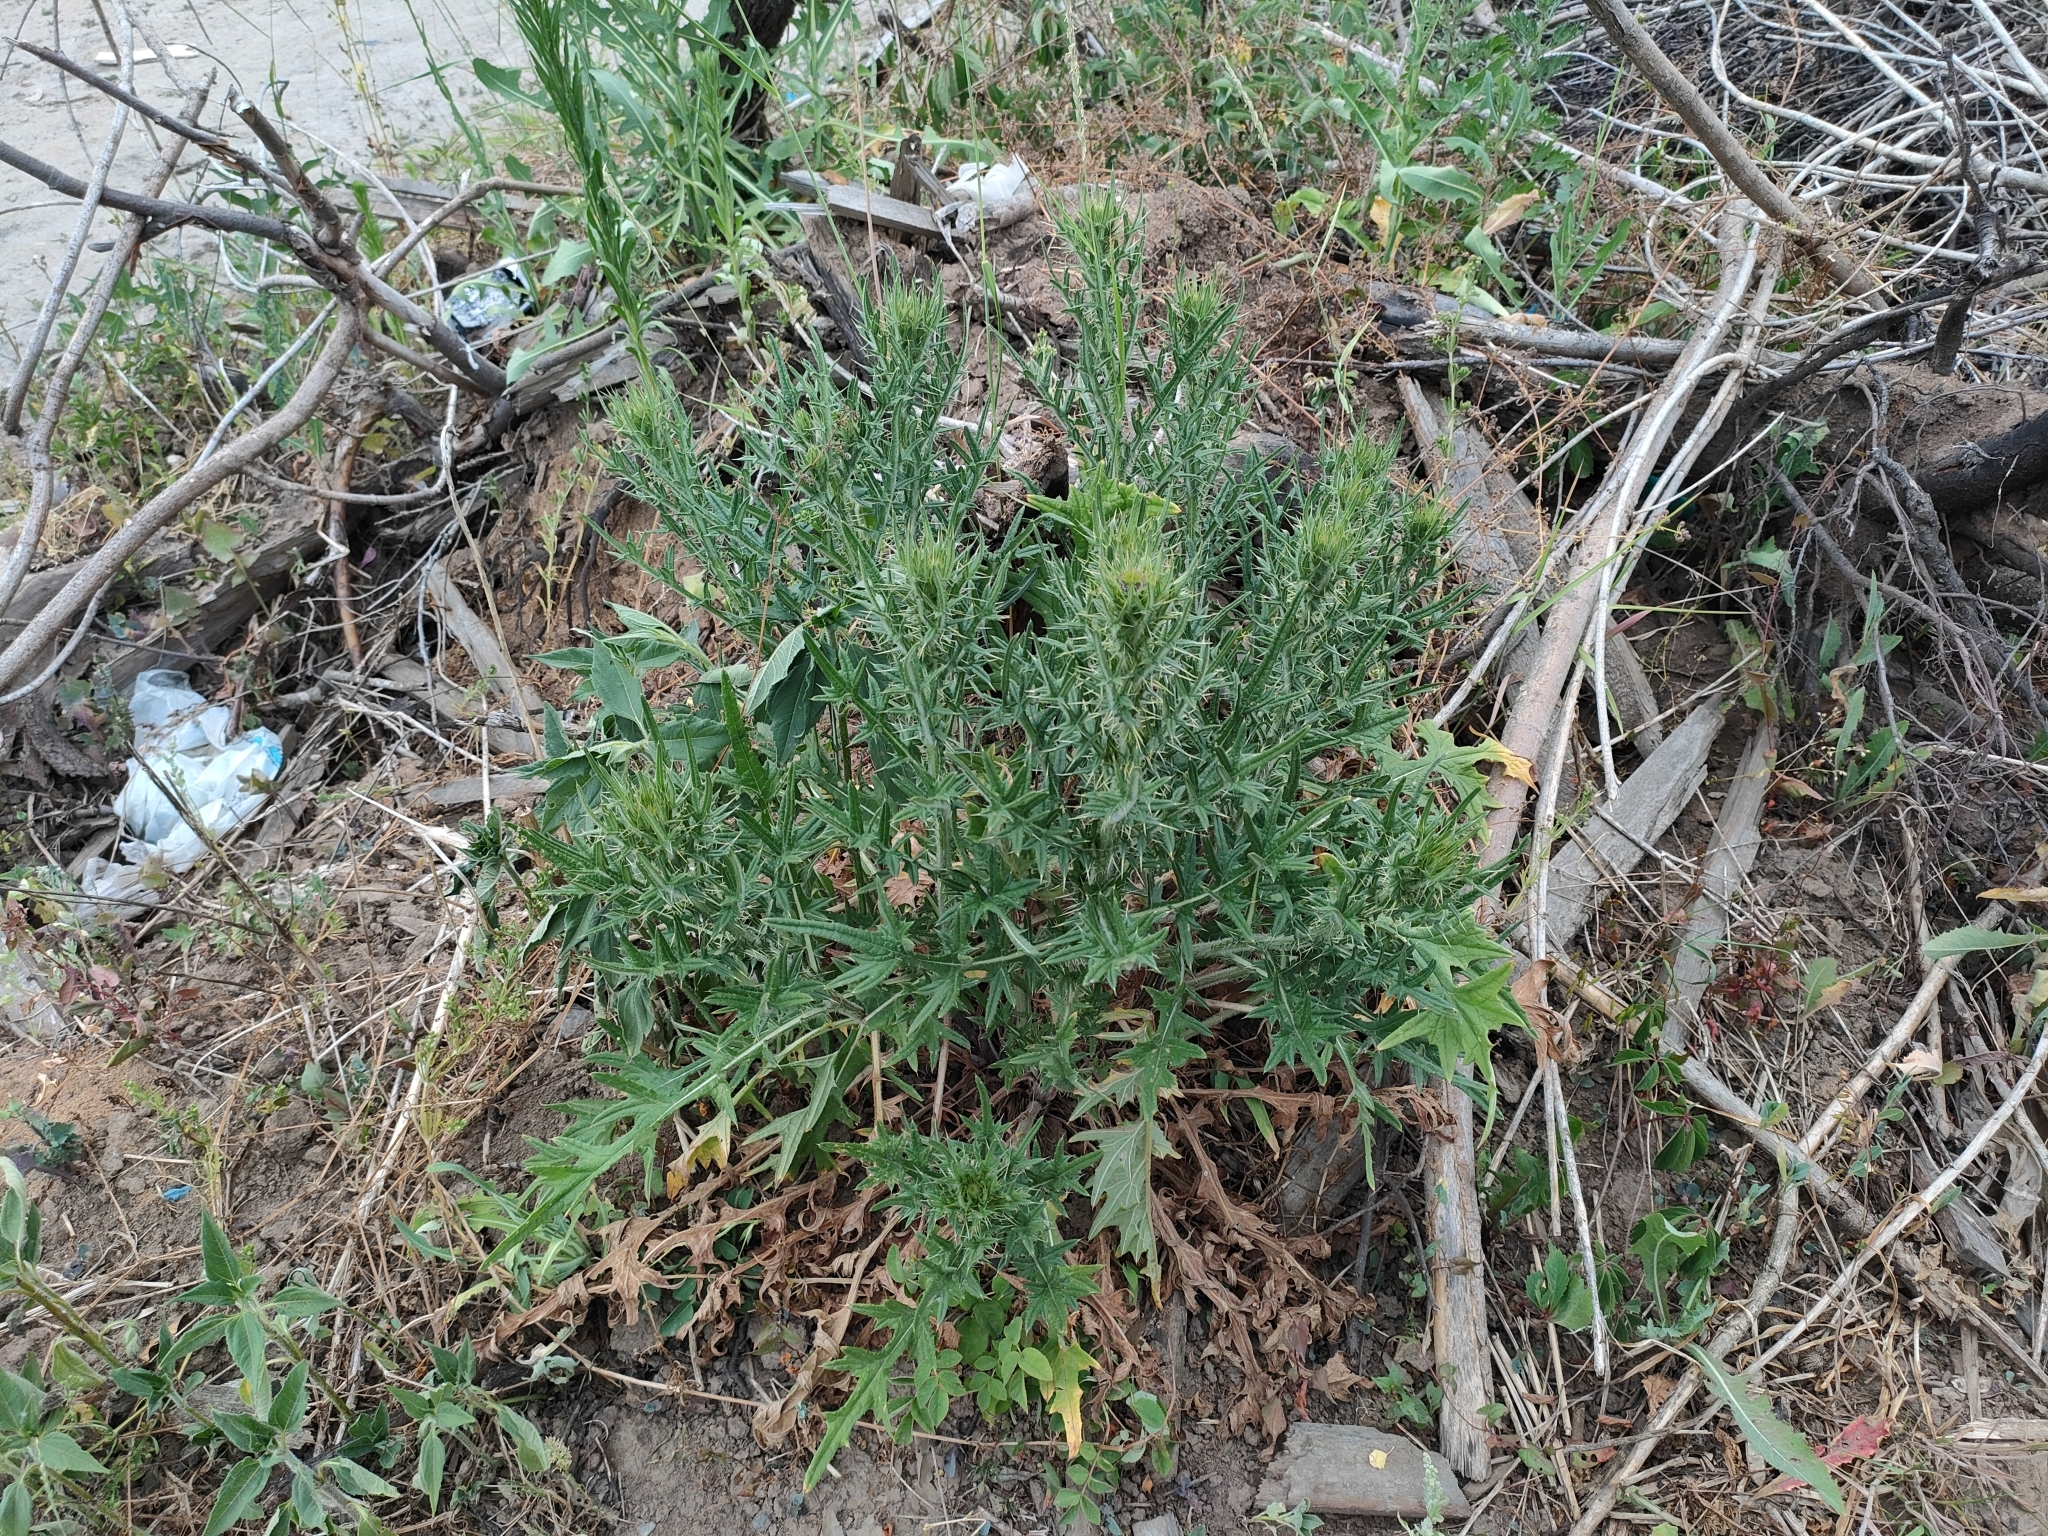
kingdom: Plantae
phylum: Tracheophyta
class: Magnoliopsida
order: Asterales
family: Asteraceae
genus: Cirsium
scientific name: Cirsium vulgare
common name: Bull thistle
